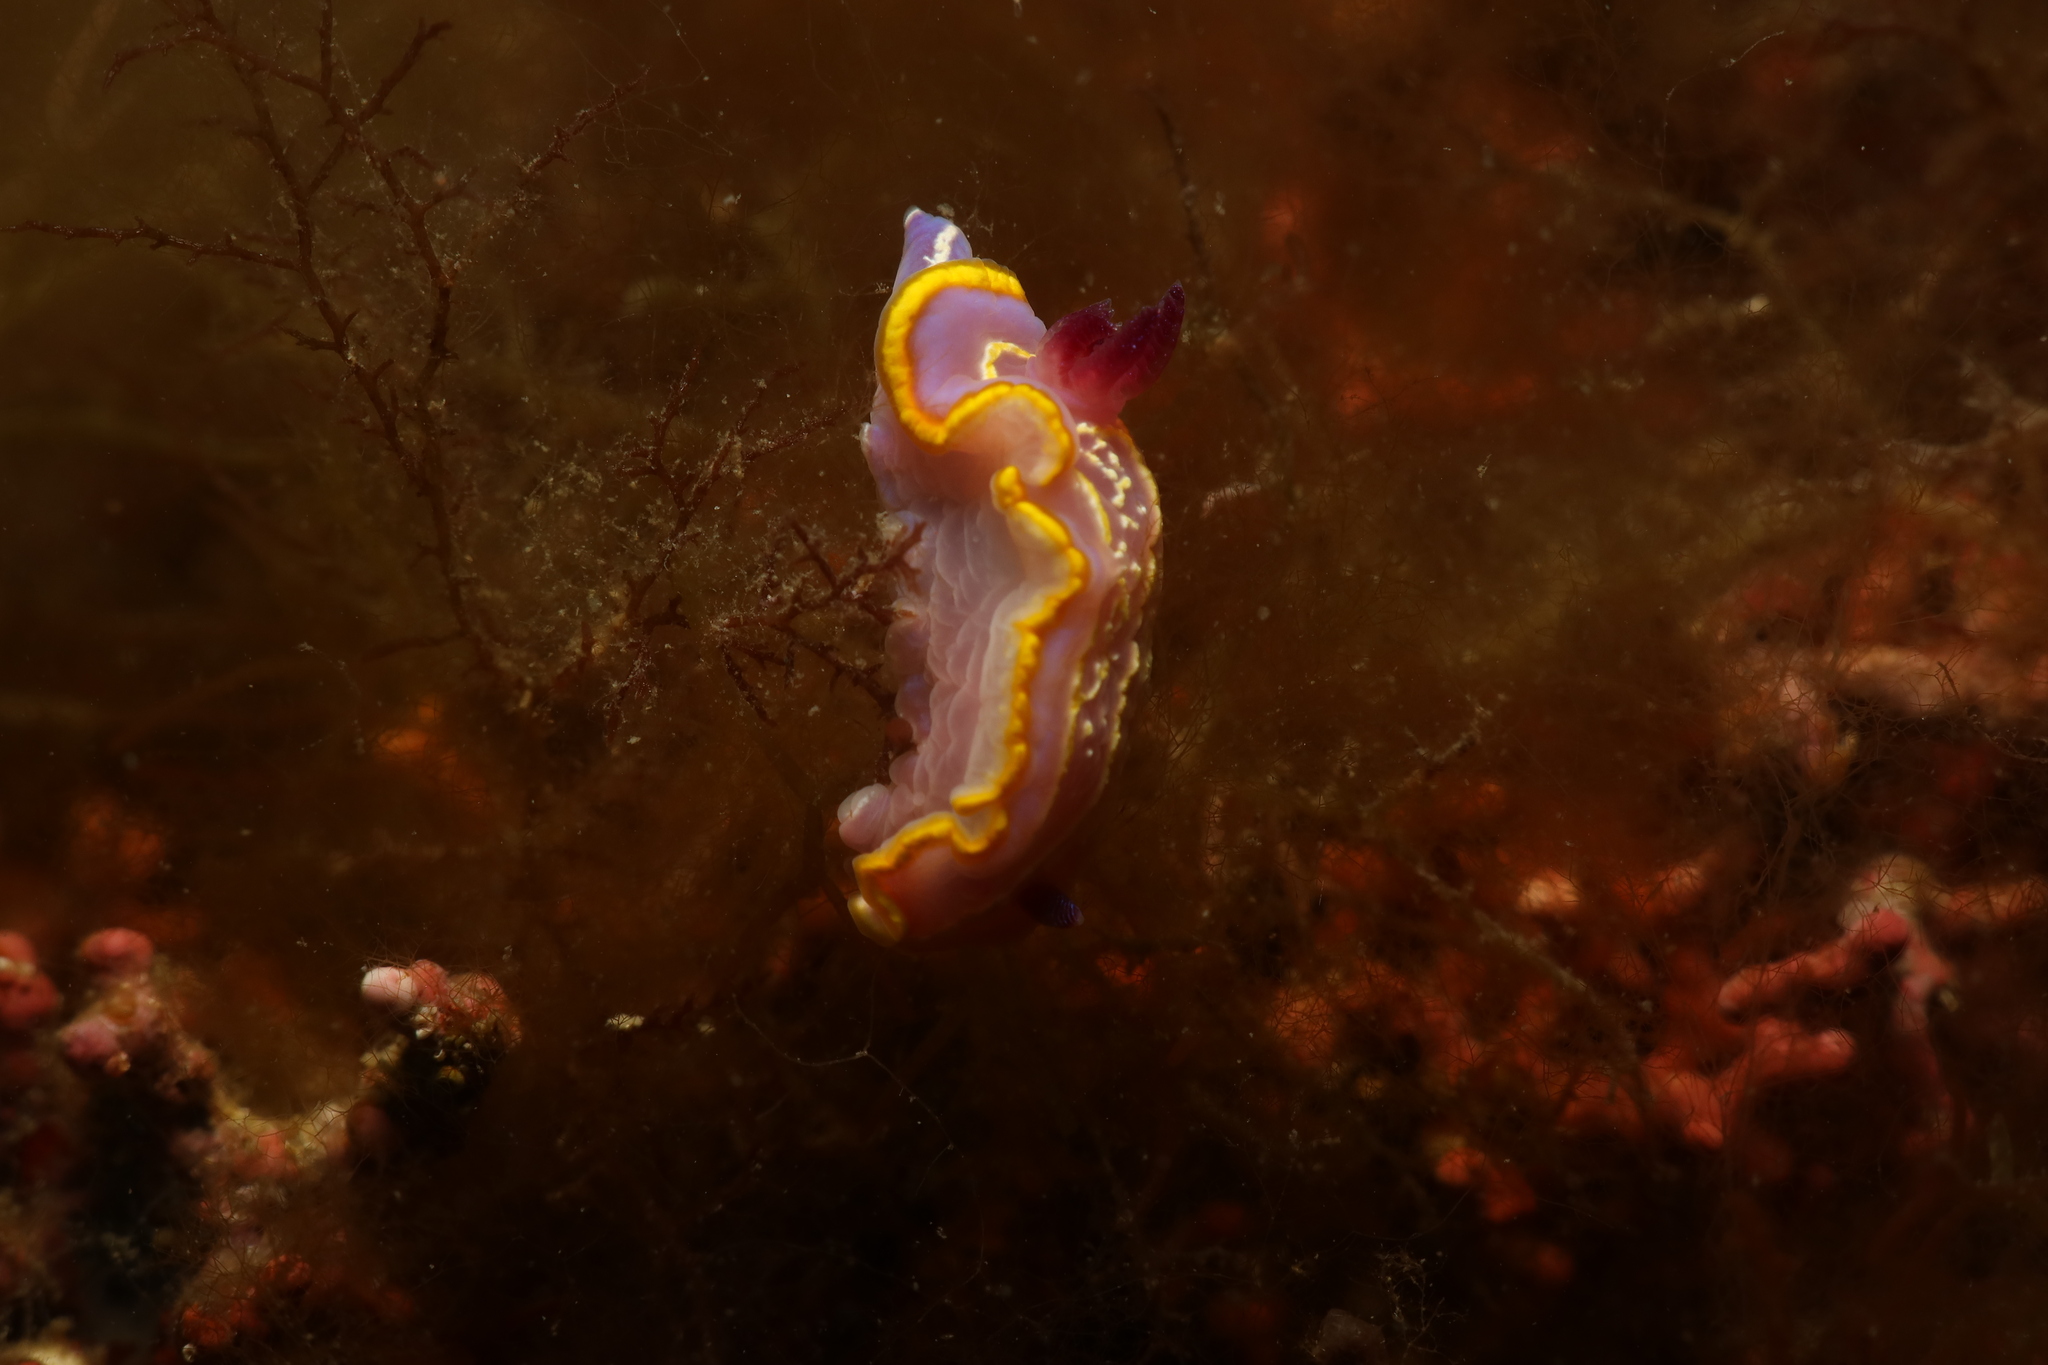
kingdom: Animalia
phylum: Mollusca
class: Gastropoda
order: Nudibranchia
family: Chromodorididae
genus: Felimida
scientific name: Felimida krohni
